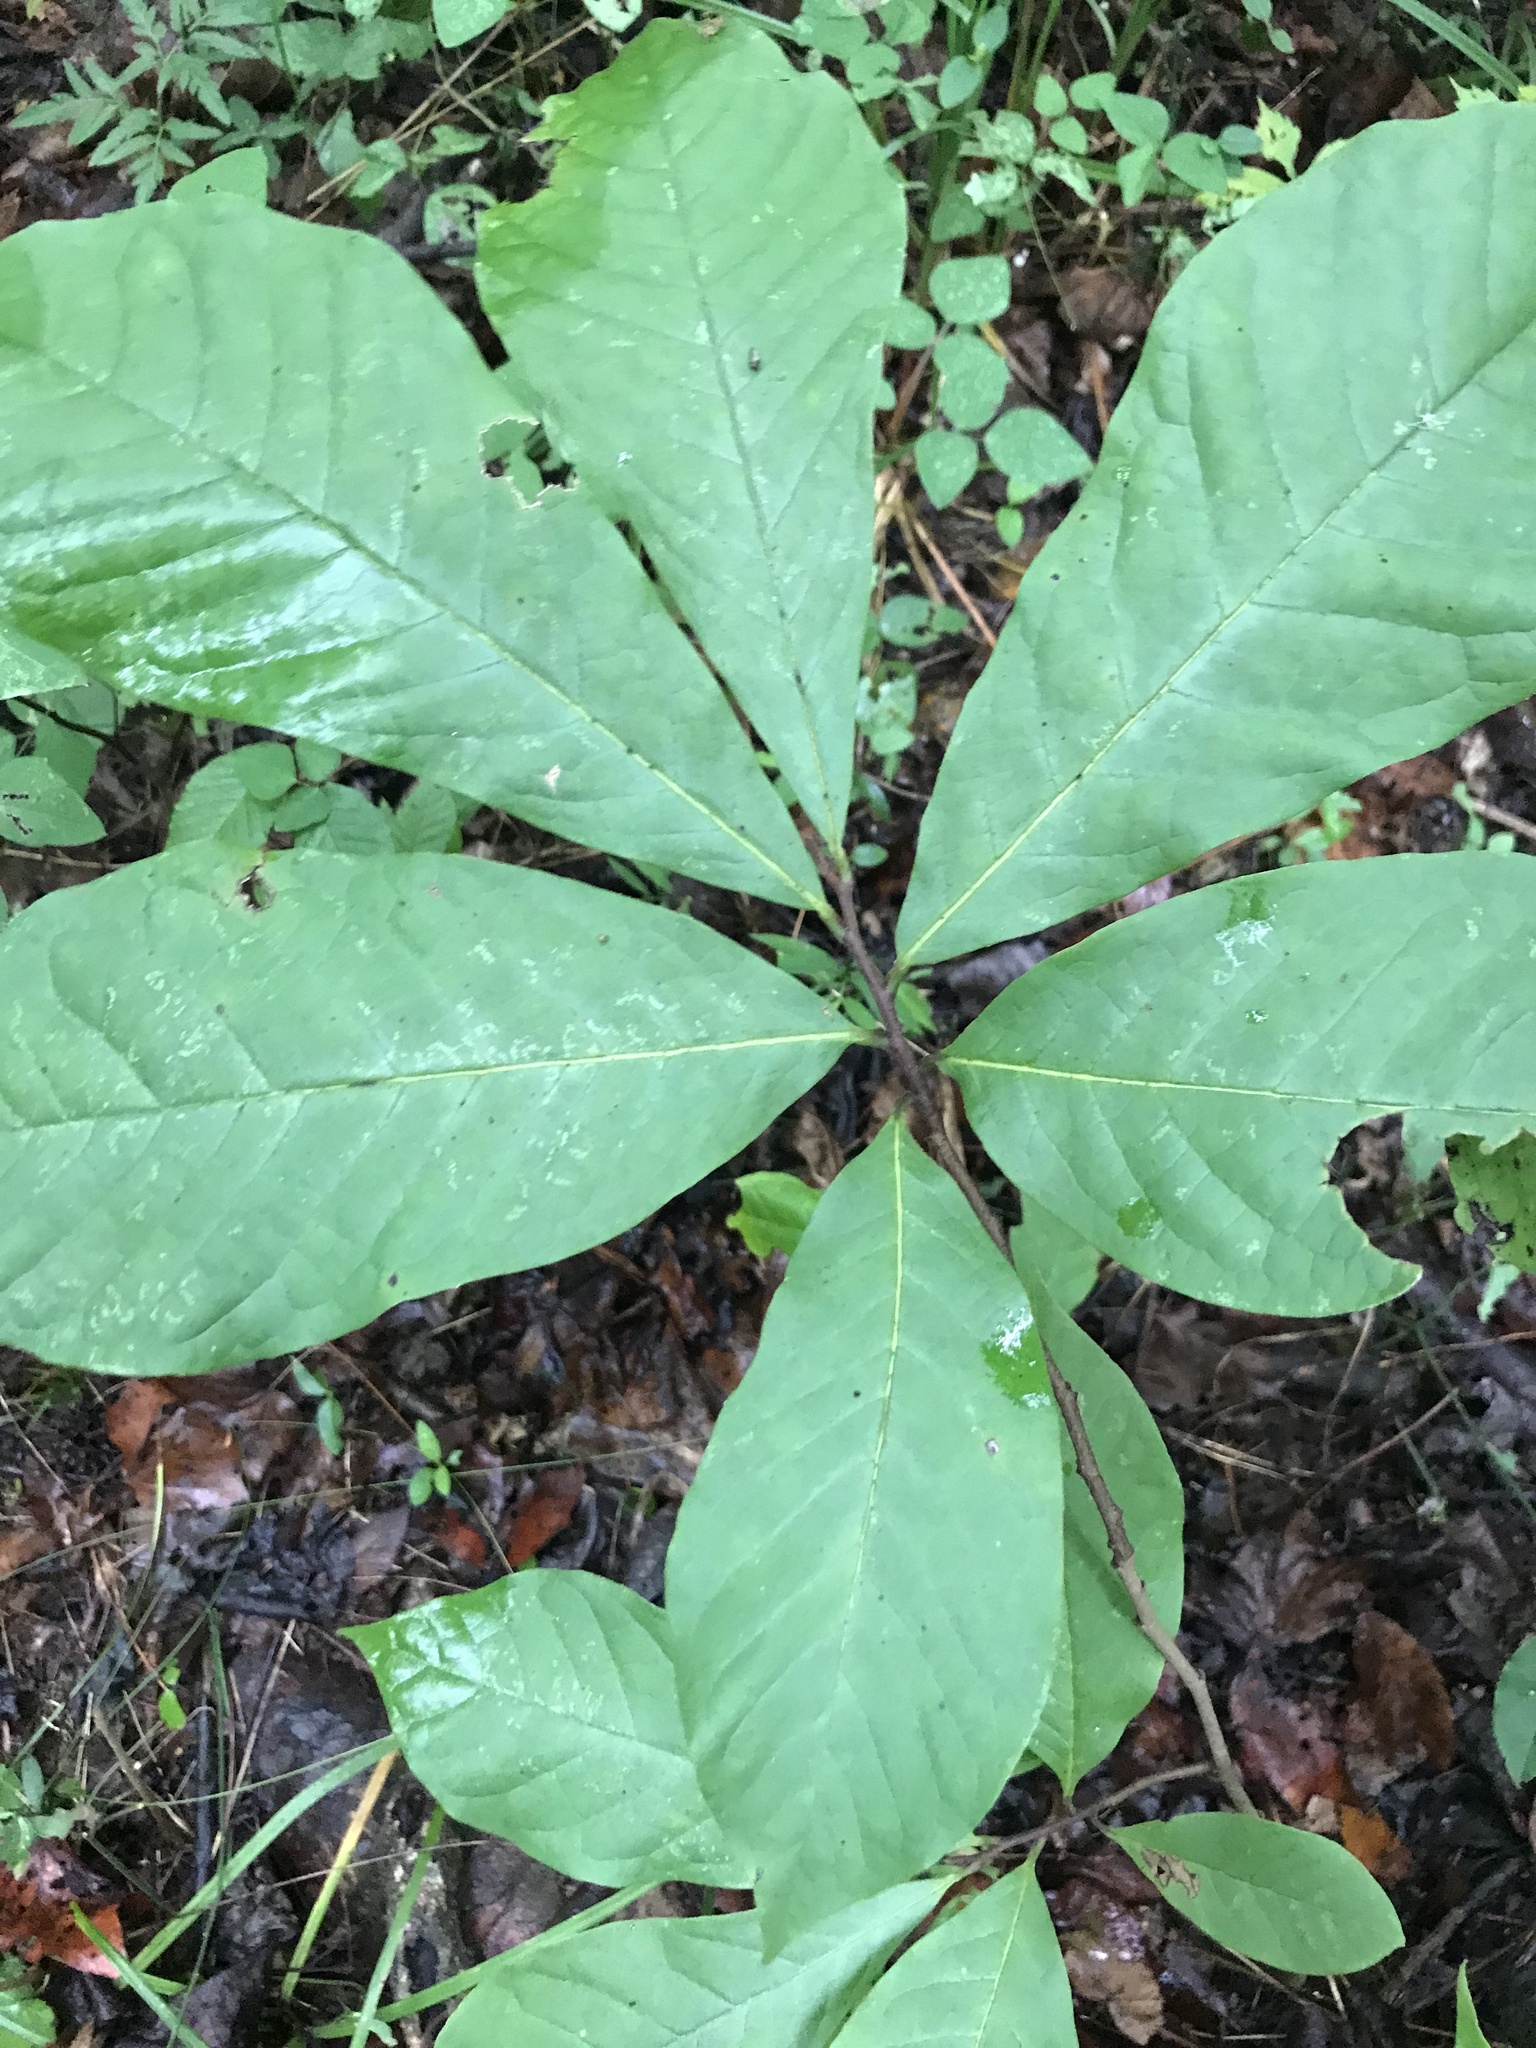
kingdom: Plantae
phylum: Tracheophyta
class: Magnoliopsida
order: Magnoliales
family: Annonaceae
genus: Asimina
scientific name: Asimina triloba
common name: Dog-banana
